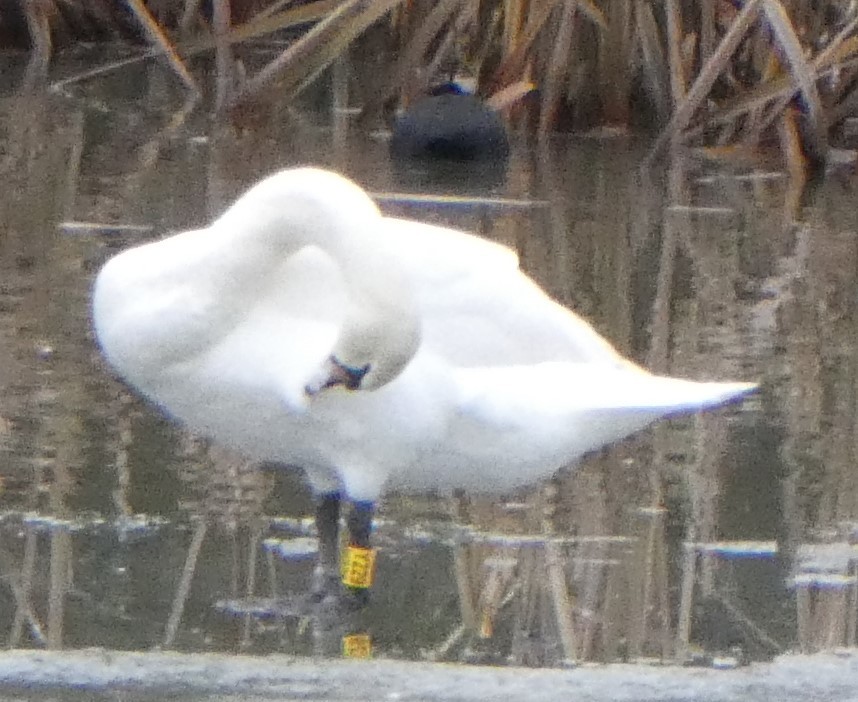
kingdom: Animalia
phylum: Chordata
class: Aves
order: Anseriformes
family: Anatidae
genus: Cygnus
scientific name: Cygnus olor
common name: Mute swan
